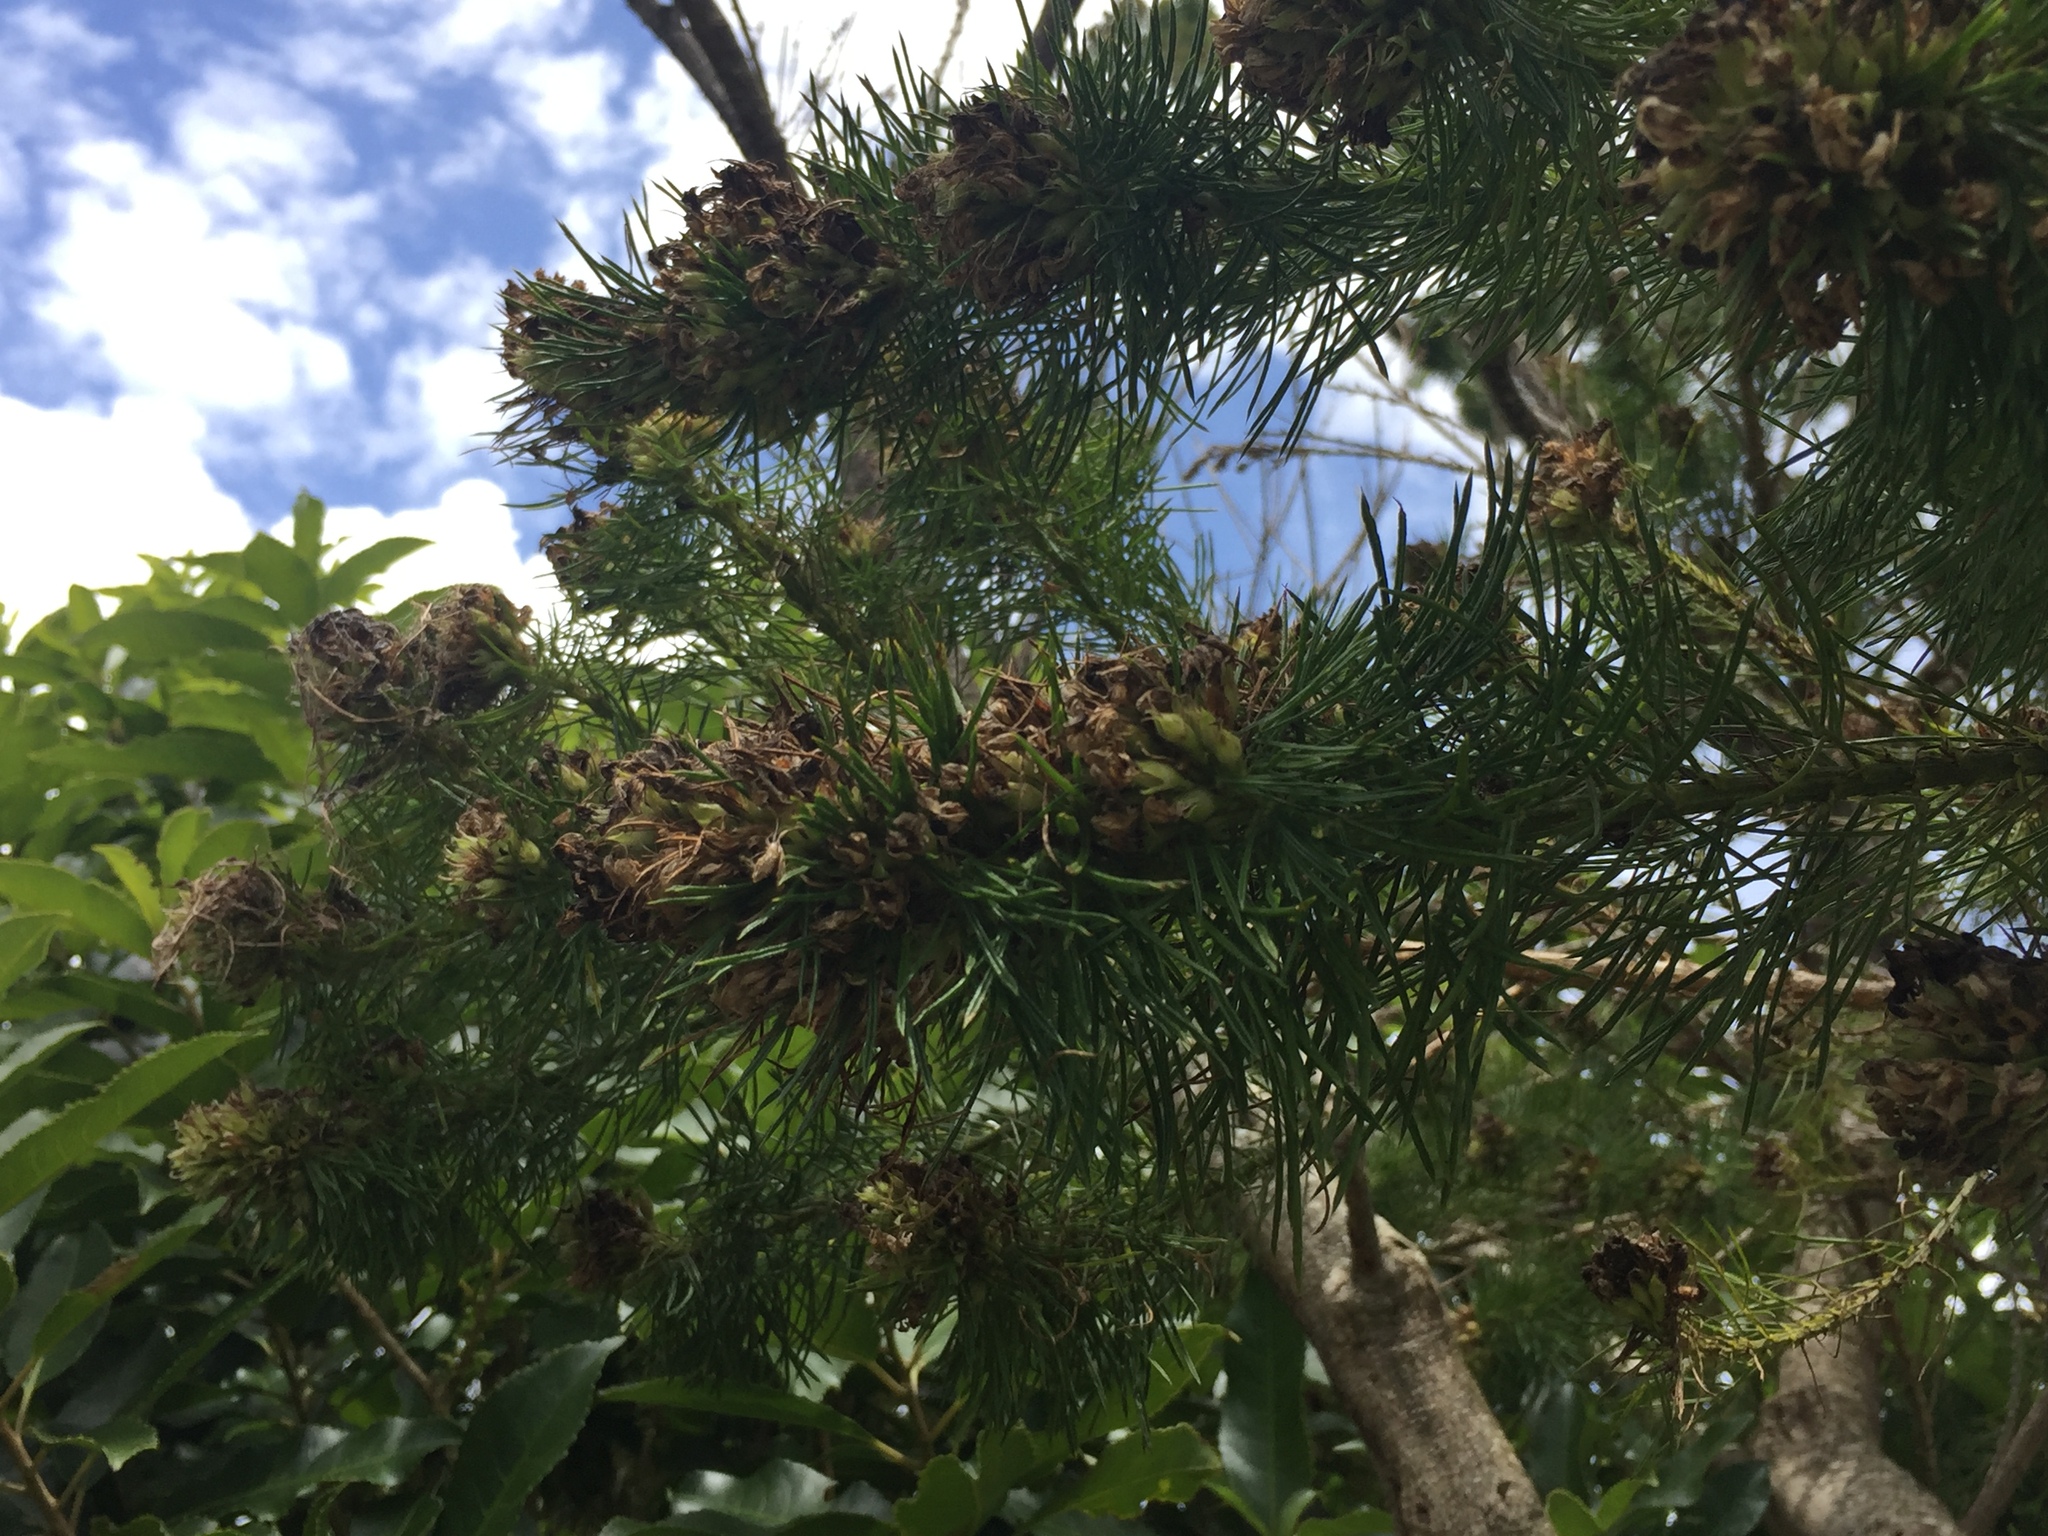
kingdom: Plantae
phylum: Tracheophyta
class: Magnoliopsida
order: Fabales
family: Fabaceae
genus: Psoralea
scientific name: Psoralea pinnata
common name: African scurfpea
